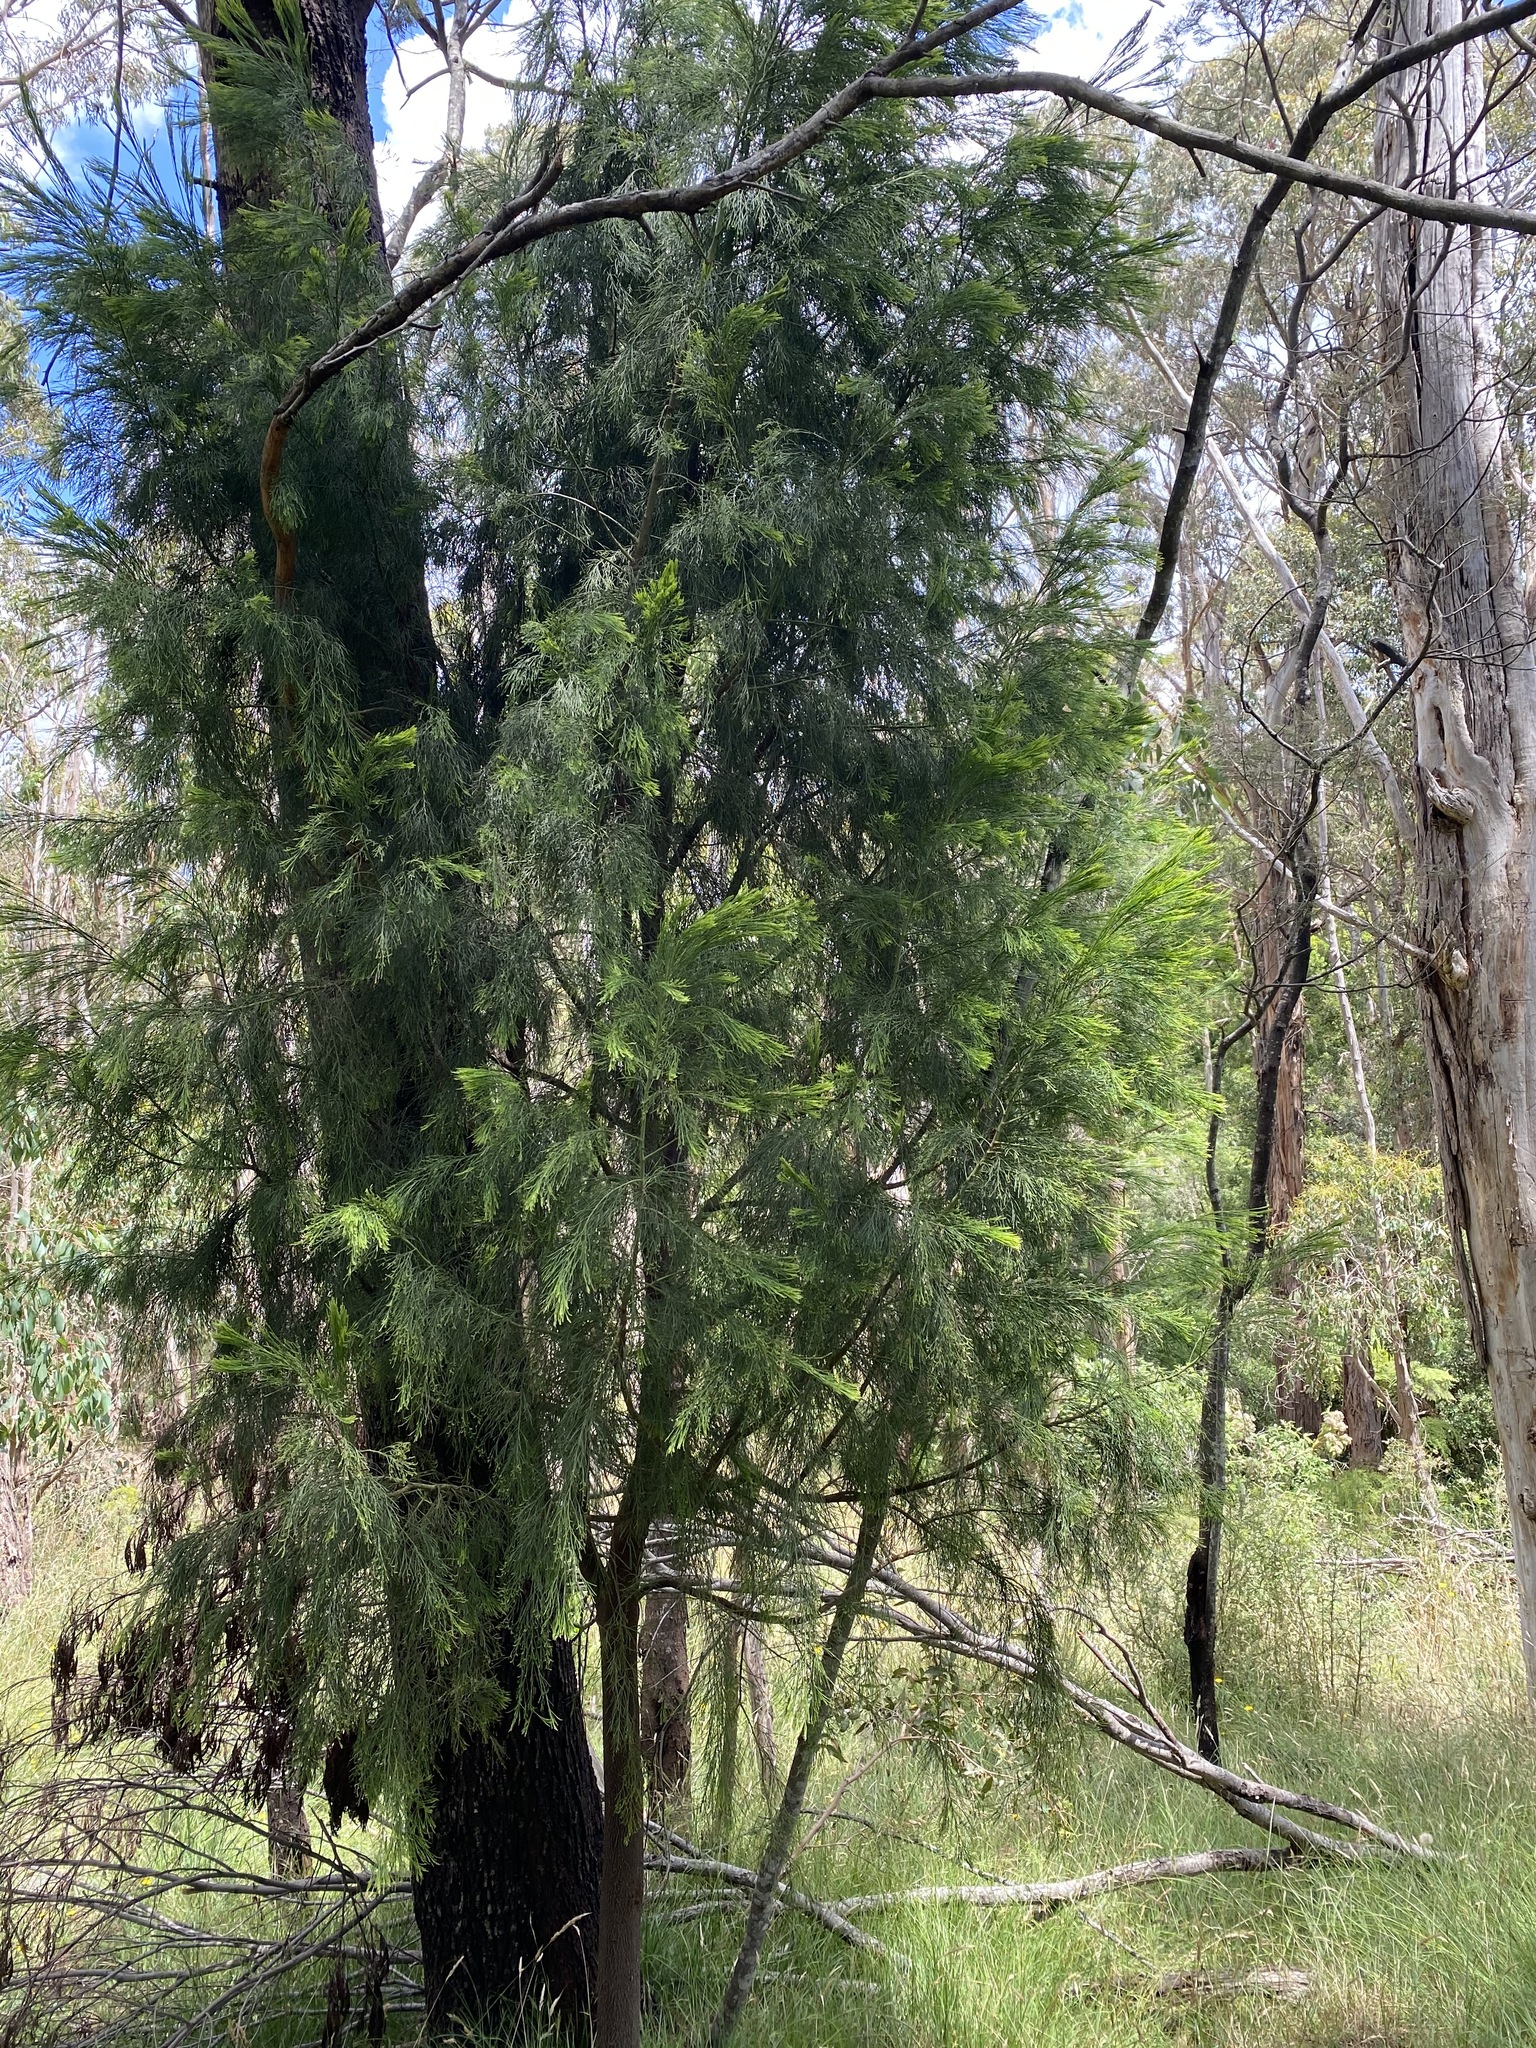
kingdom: Plantae
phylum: Tracheophyta
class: Magnoliopsida
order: Santalales
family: Santalaceae
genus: Exocarpos
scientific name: Exocarpos cupressiformis
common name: Cherry ballart
